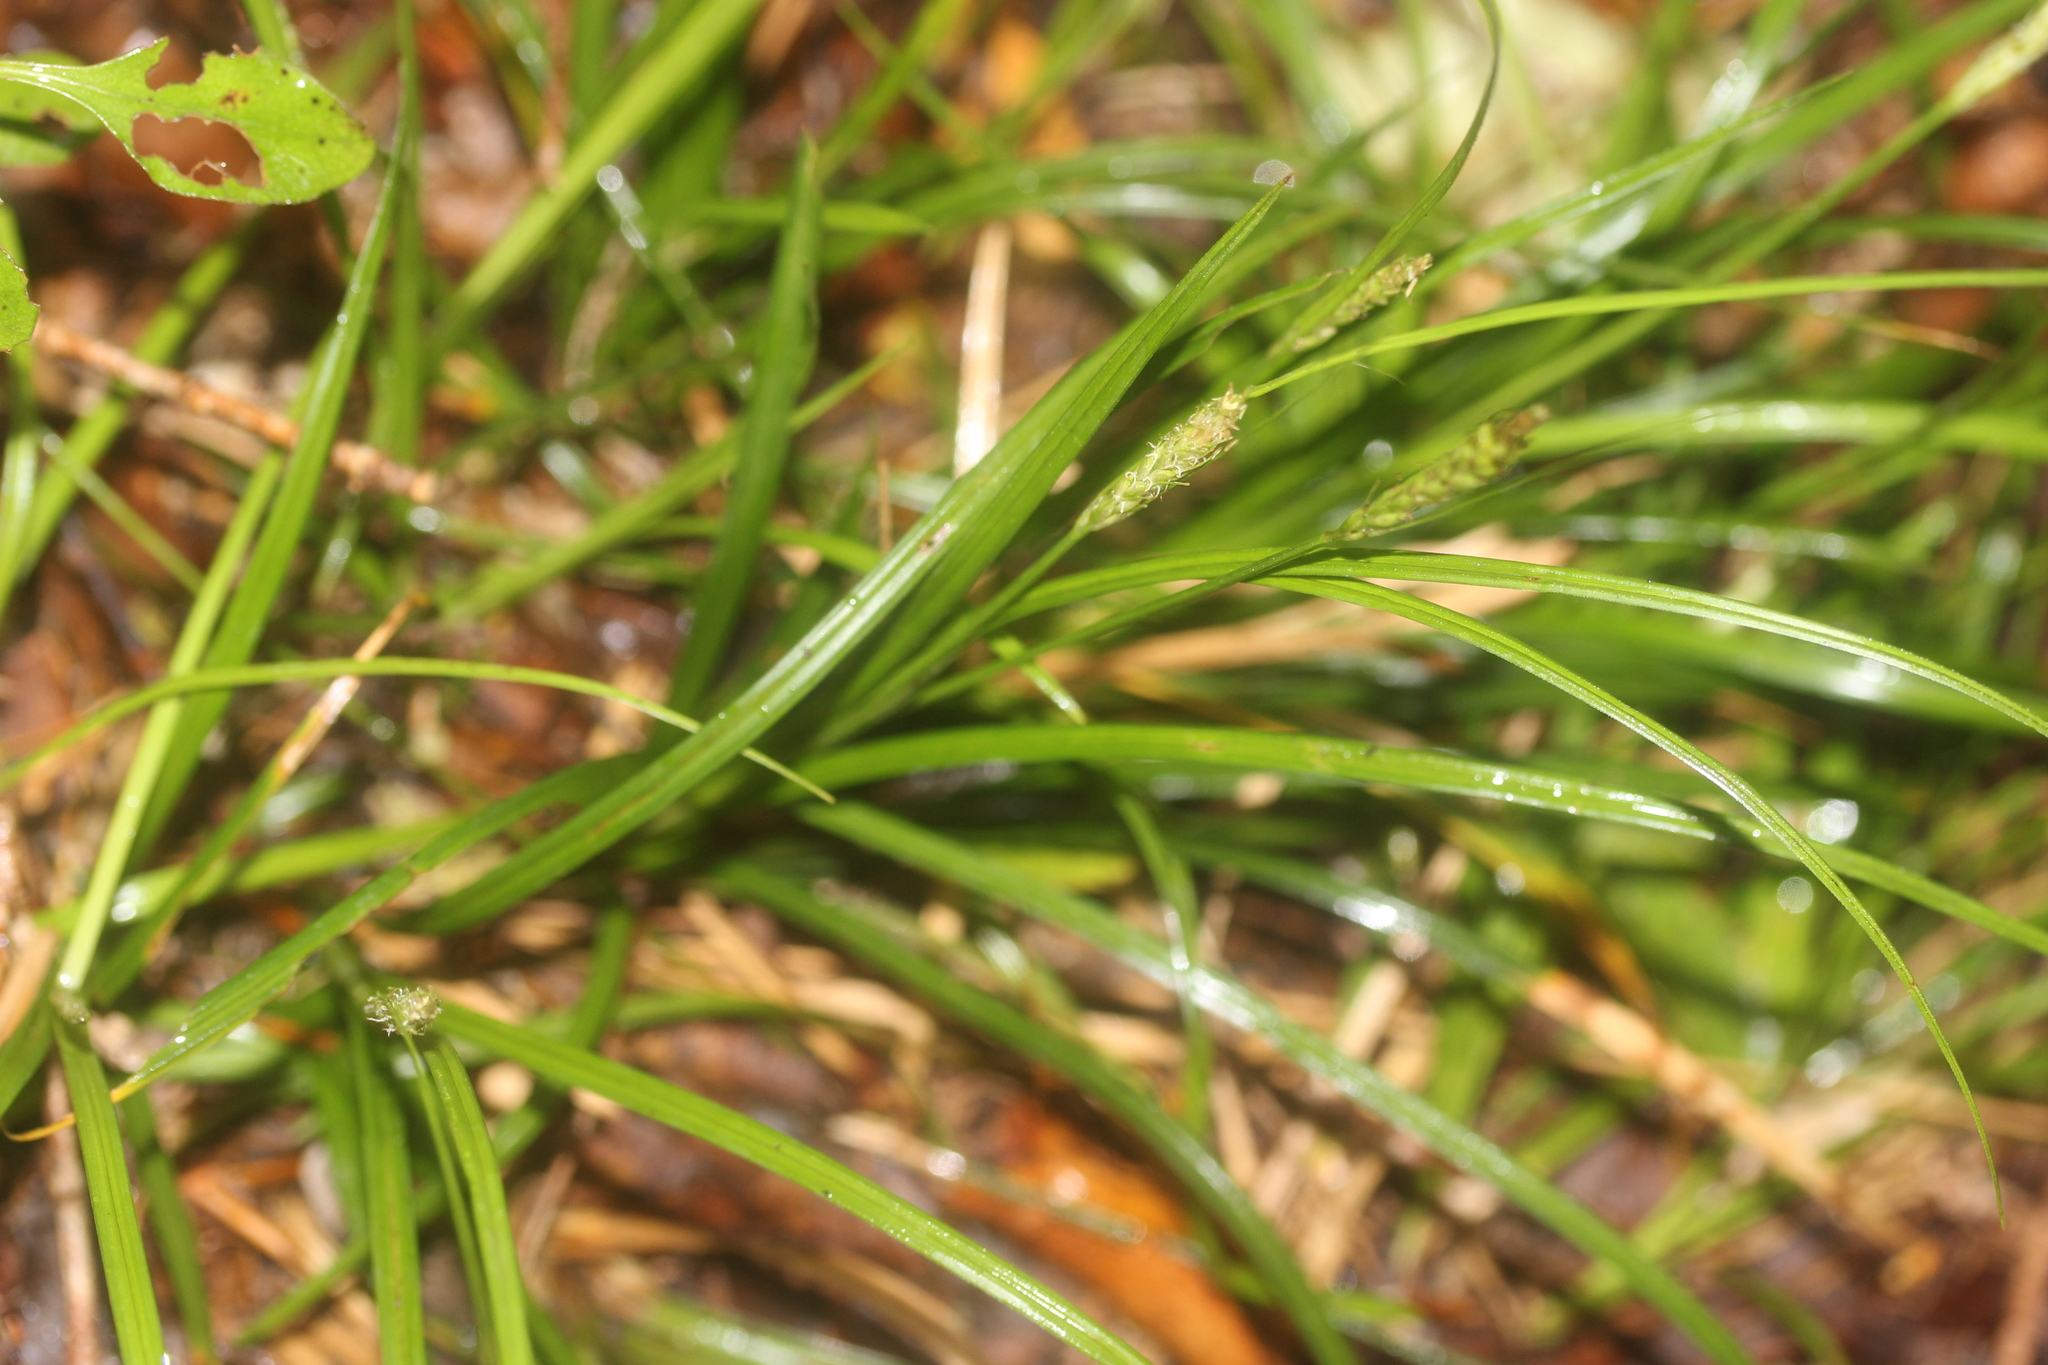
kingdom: Plantae
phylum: Tracheophyta
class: Liliopsida
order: Poales
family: Cyperaceae
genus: Carex
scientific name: Carex uncinata
